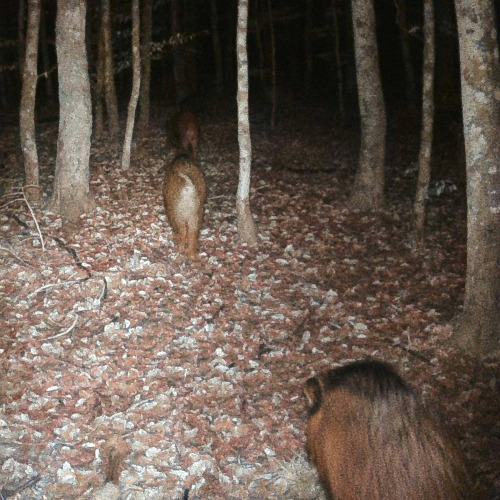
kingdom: Animalia
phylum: Chordata
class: Mammalia
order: Artiodactyla
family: Suidae
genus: Sus
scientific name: Sus scrofa
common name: Wild boar
